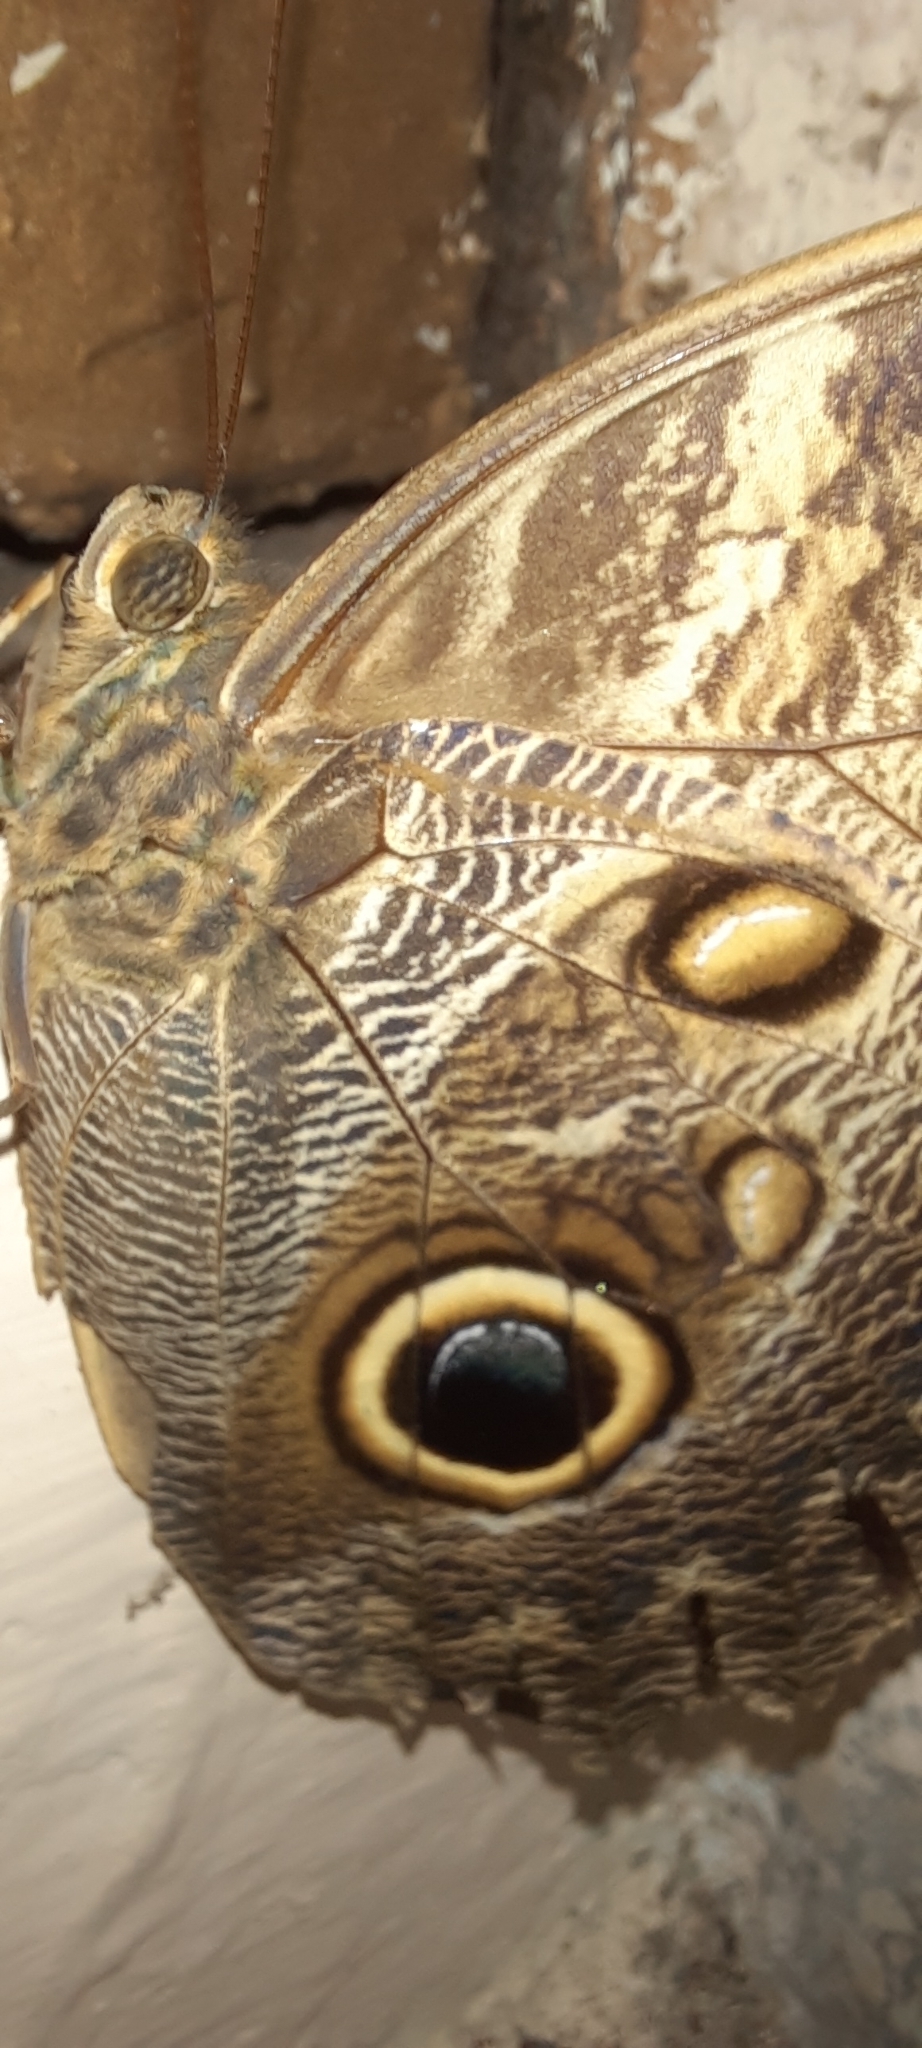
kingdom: Animalia
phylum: Arthropoda
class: Insecta
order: Lepidoptera
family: Nymphalidae
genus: Caligo
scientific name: Caligo telamonius
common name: Pale owl-butterfly
